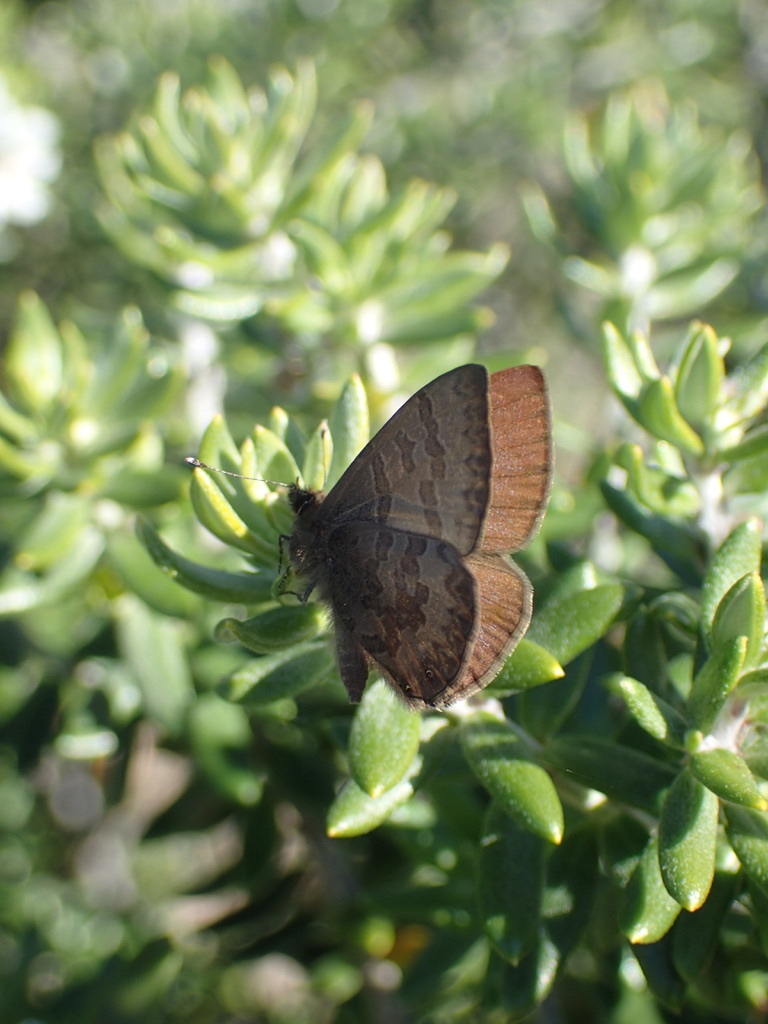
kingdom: Animalia
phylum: Arthropoda
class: Insecta
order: Lepidoptera
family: Lycaenidae
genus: Prosotas
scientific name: Prosotas felderi
